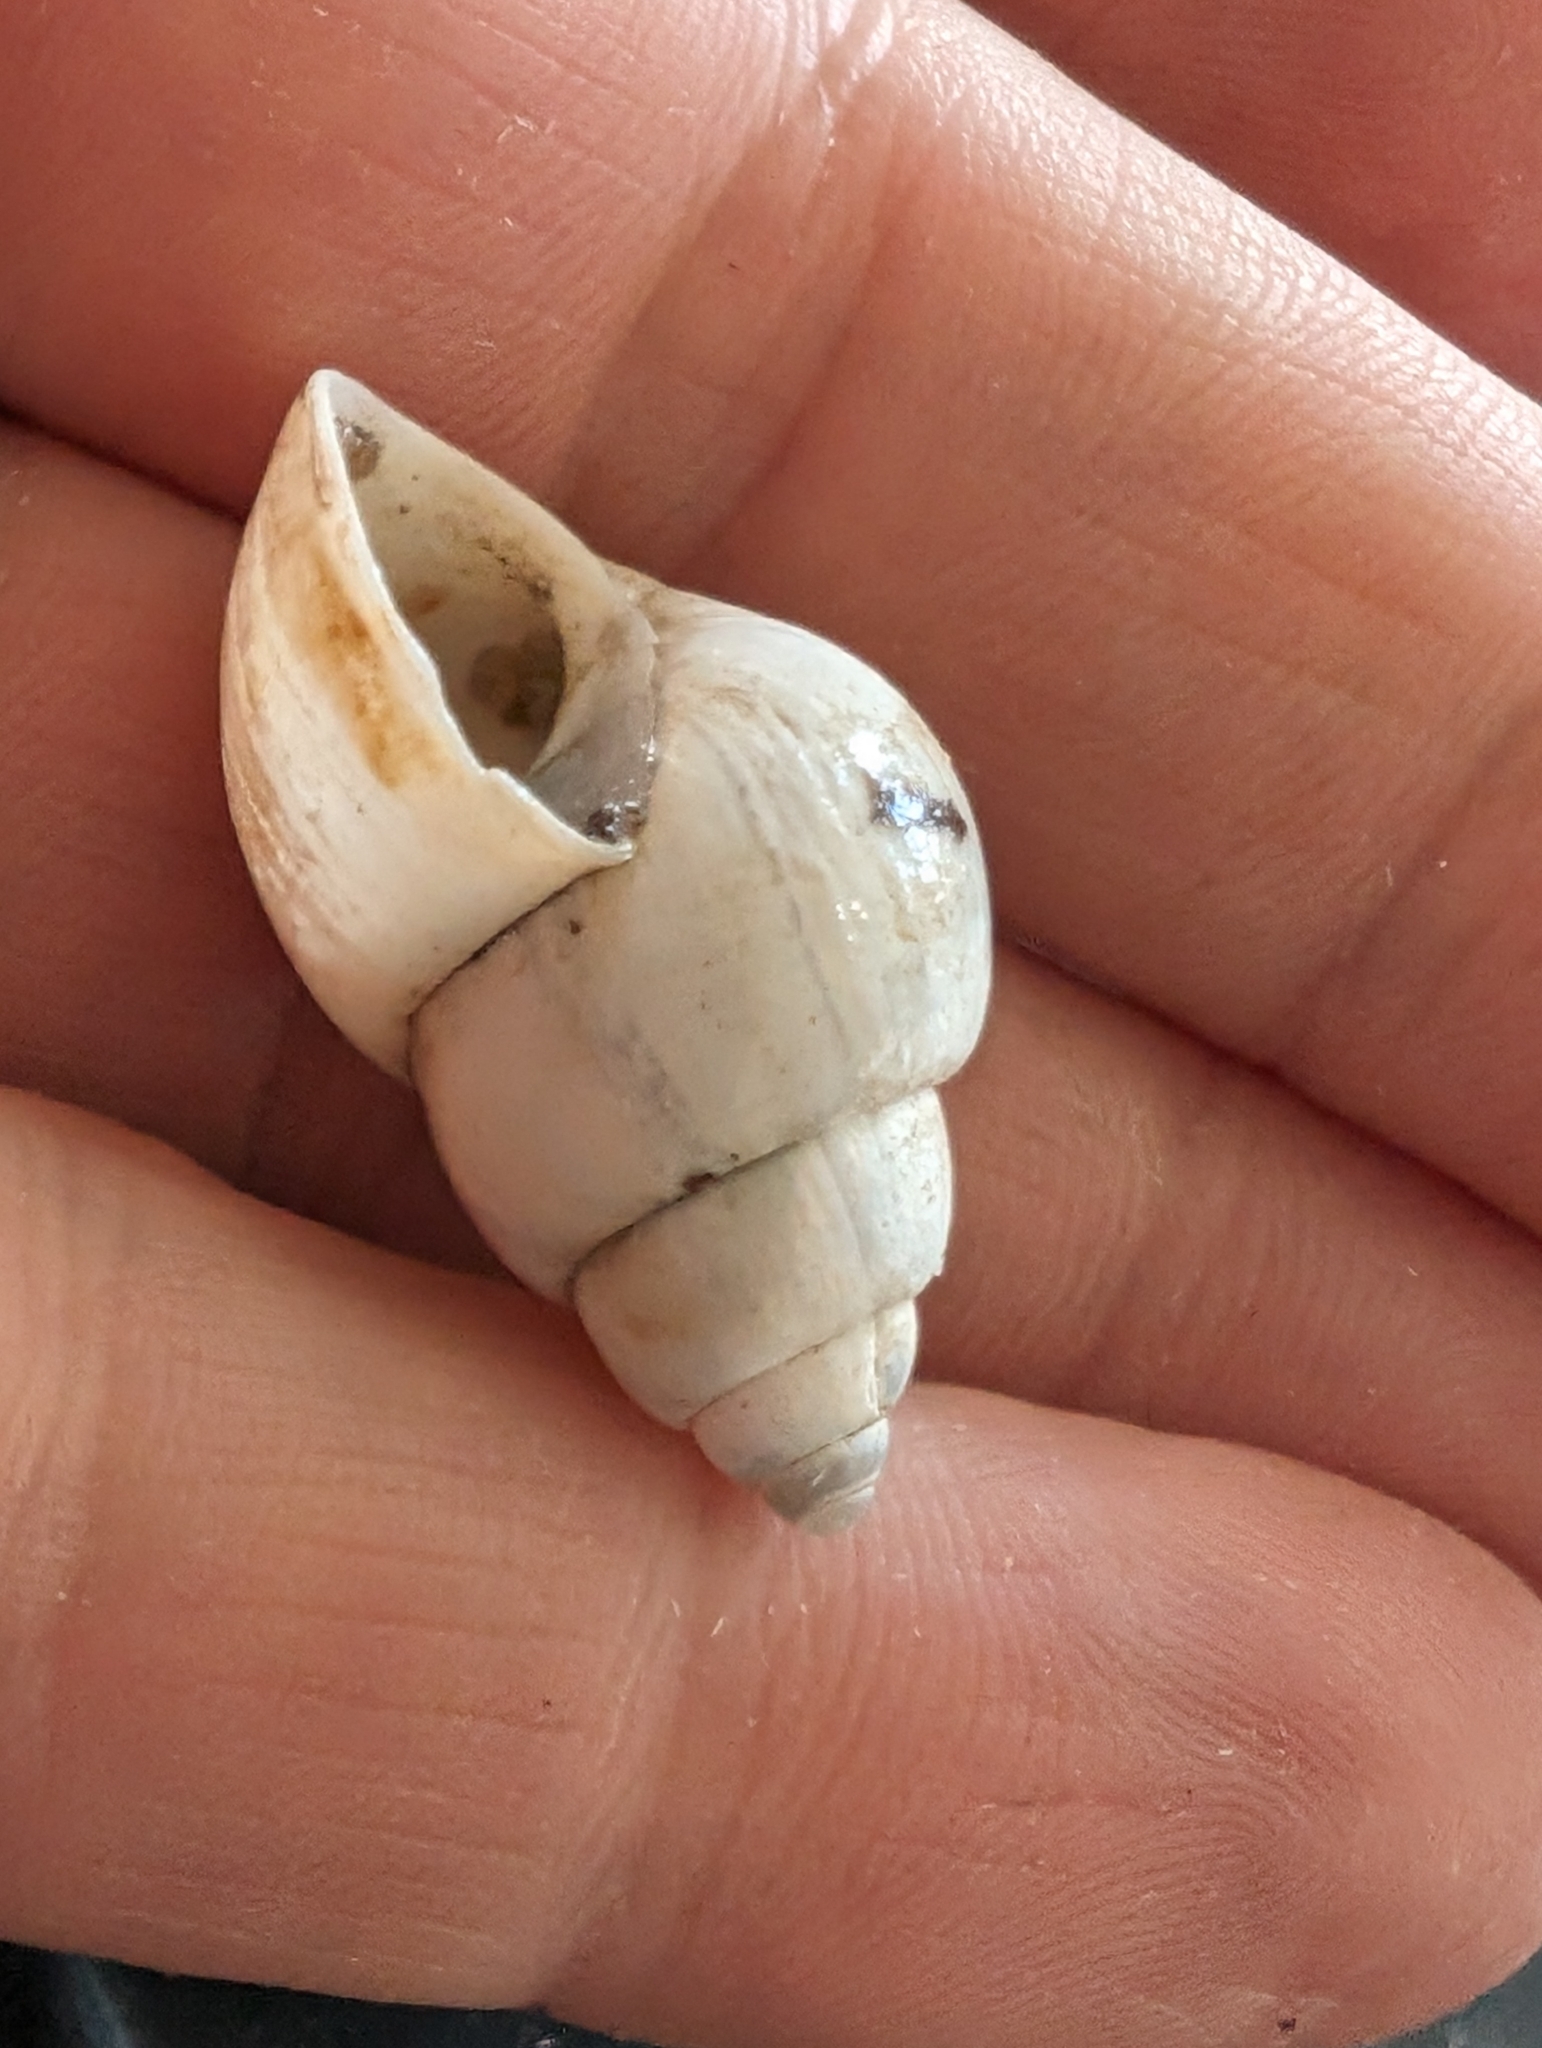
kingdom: Animalia
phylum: Mollusca
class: Gastropoda
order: Architaenioglossa
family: Viviparidae
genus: Campeloma
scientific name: Campeloma decisum
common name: Pointed campeloma
